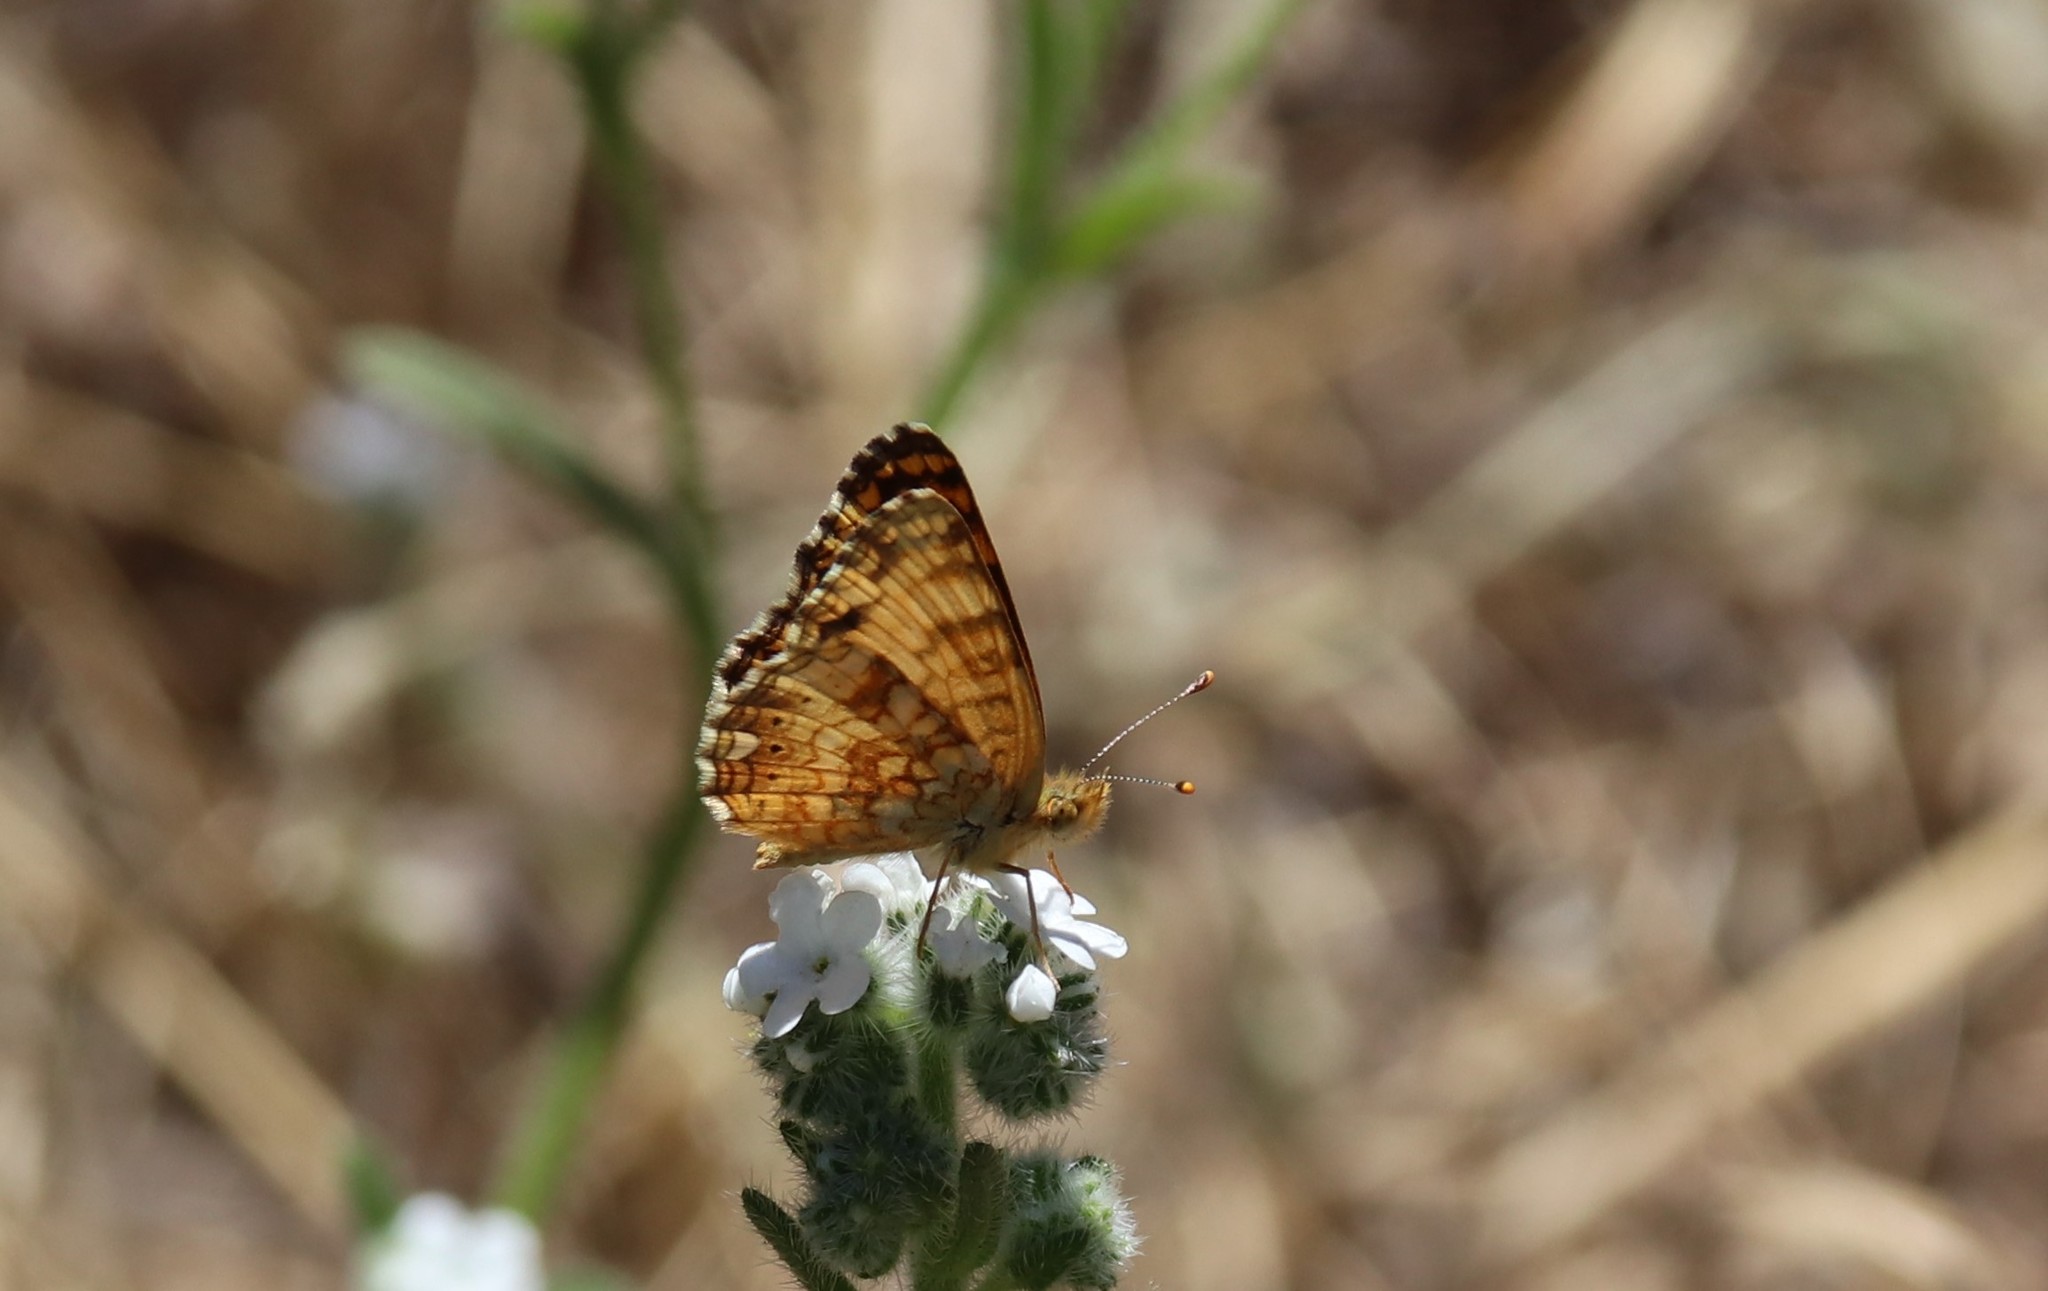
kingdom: Animalia
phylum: Arthropoda
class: Insecta
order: Lepidoptera
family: Nymphalidae
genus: Eresia
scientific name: Eresia aveyrona
